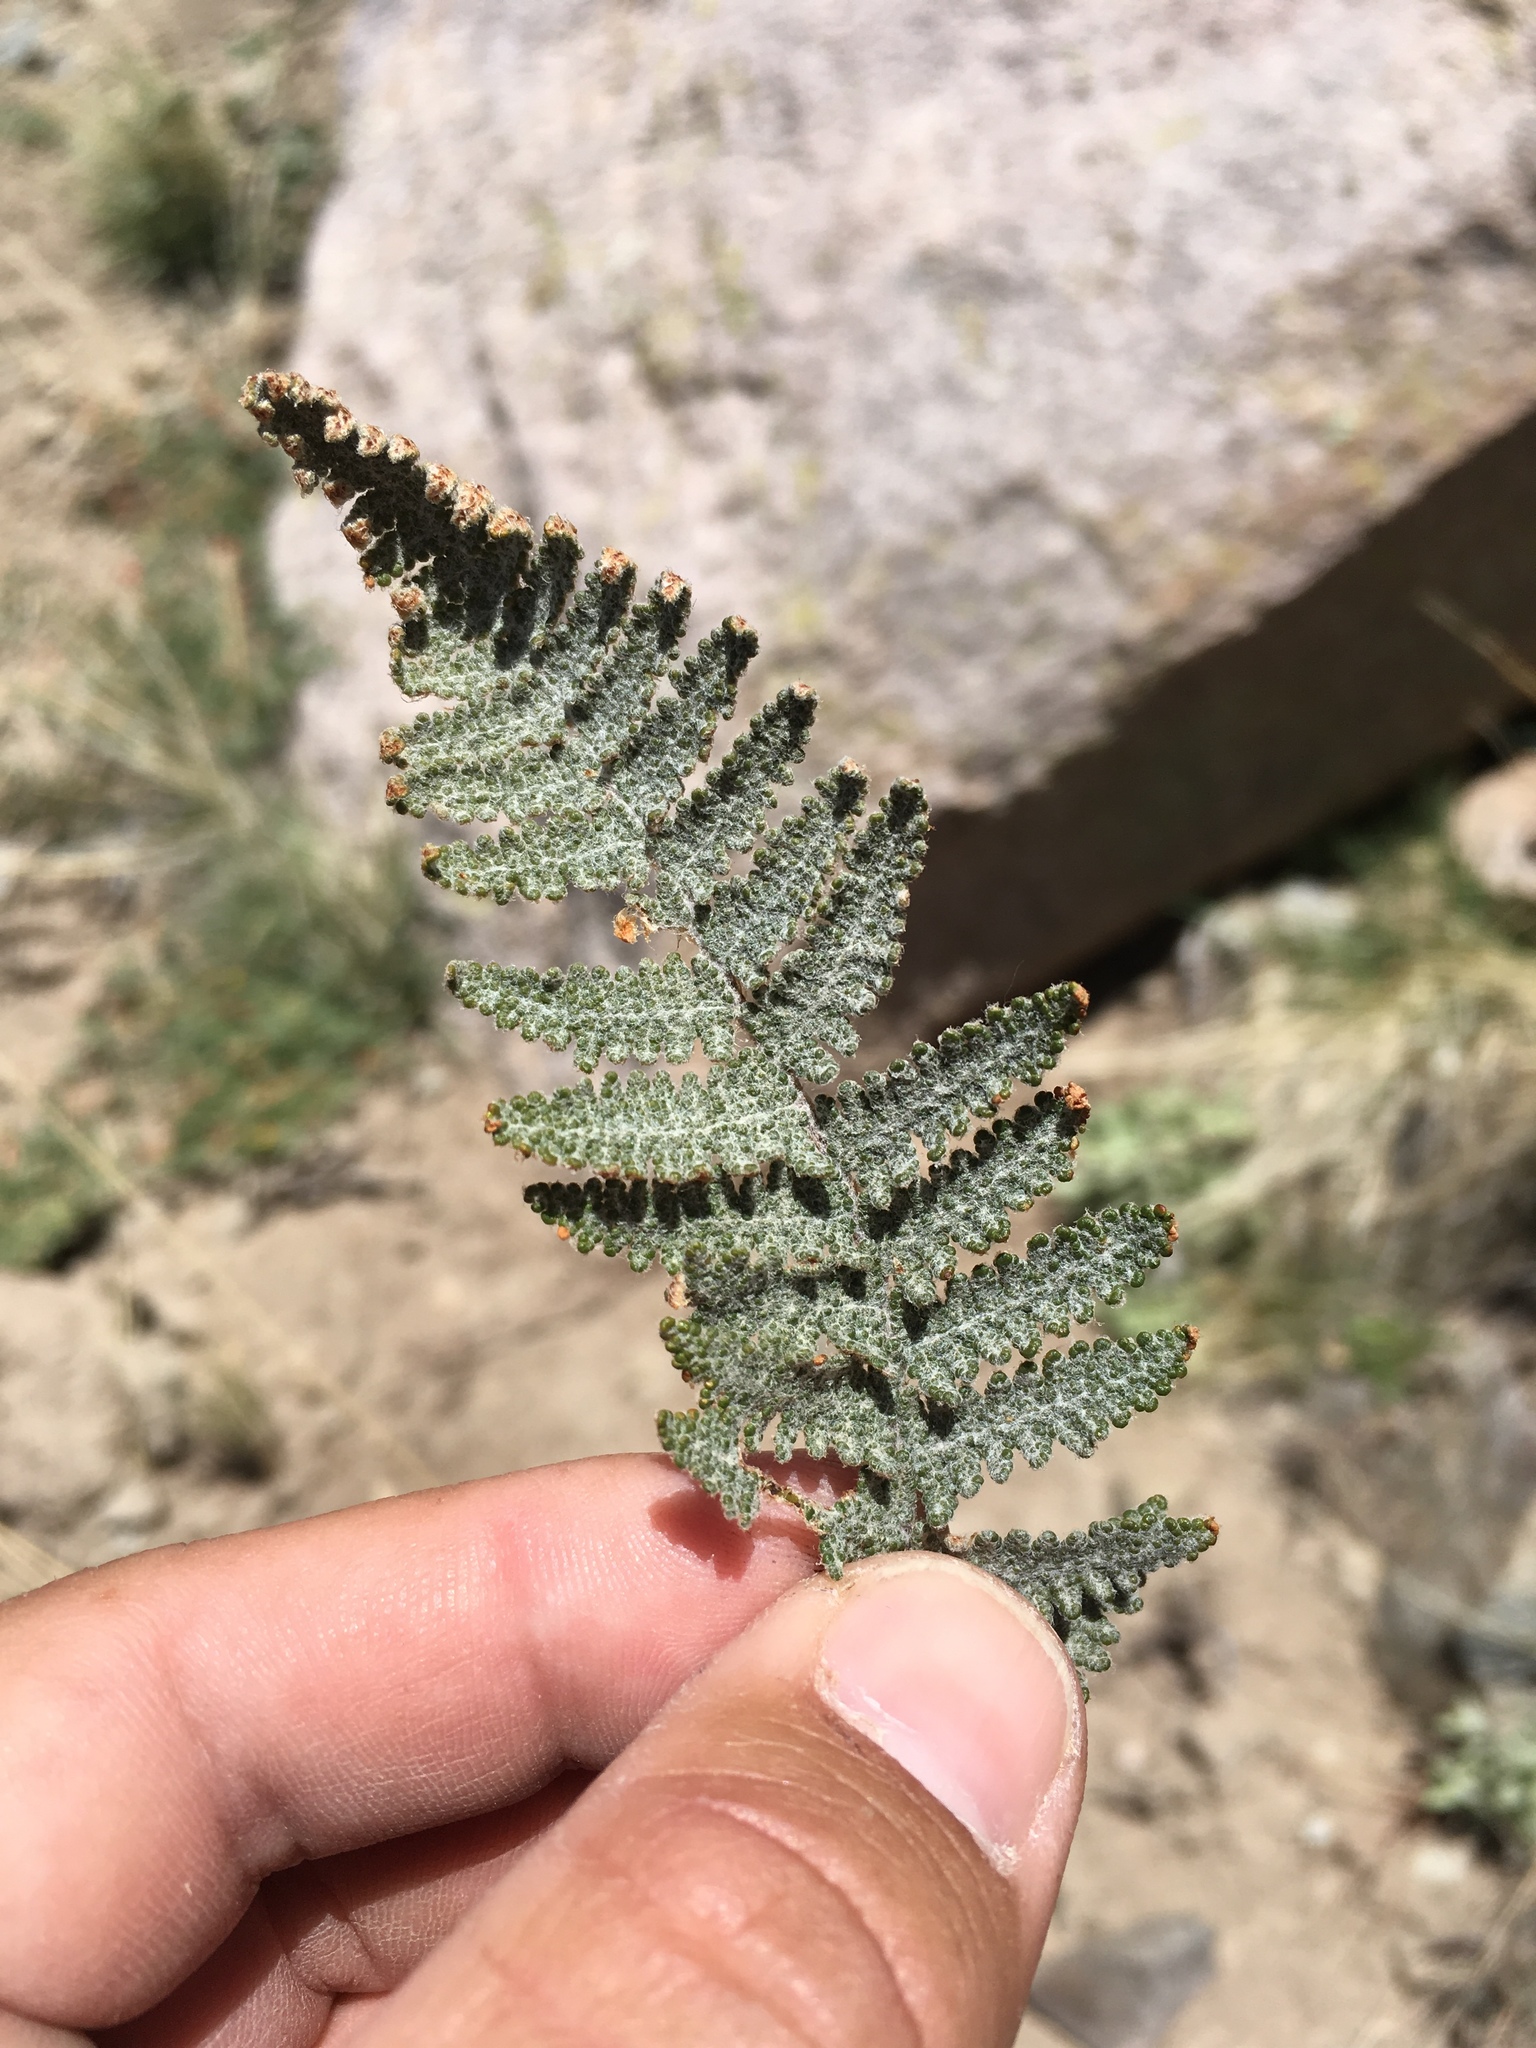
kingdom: Plantae
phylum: Tracheophyta
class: Polypodiopsida
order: Polypodiales
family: Pteridaceae
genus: Myriopteris
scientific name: Myriopteris lindheimeri
